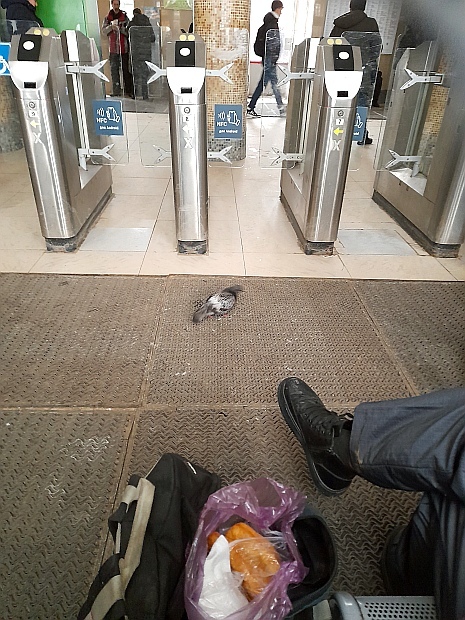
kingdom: Animalia
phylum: Chordata
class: Aves
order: Columbiformes
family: Columbidae
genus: Columba
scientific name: Columba livia
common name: Rock pigeon
